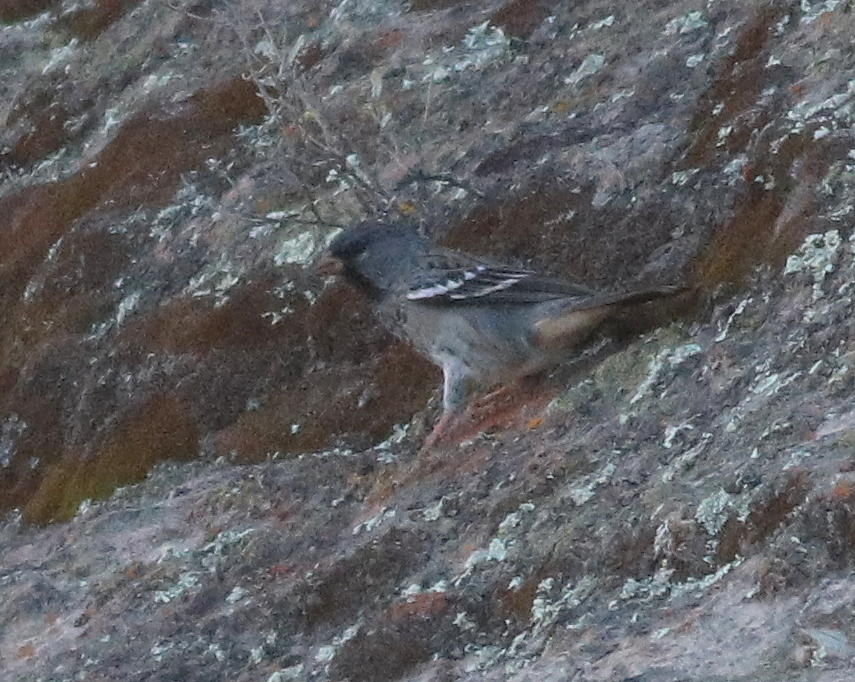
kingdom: Animalia
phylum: Chordata
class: Aves
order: Passeriformes
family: Thraupidae
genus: Rhopospina
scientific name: Rhopospina fruticeti
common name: Mourning sierra finch
